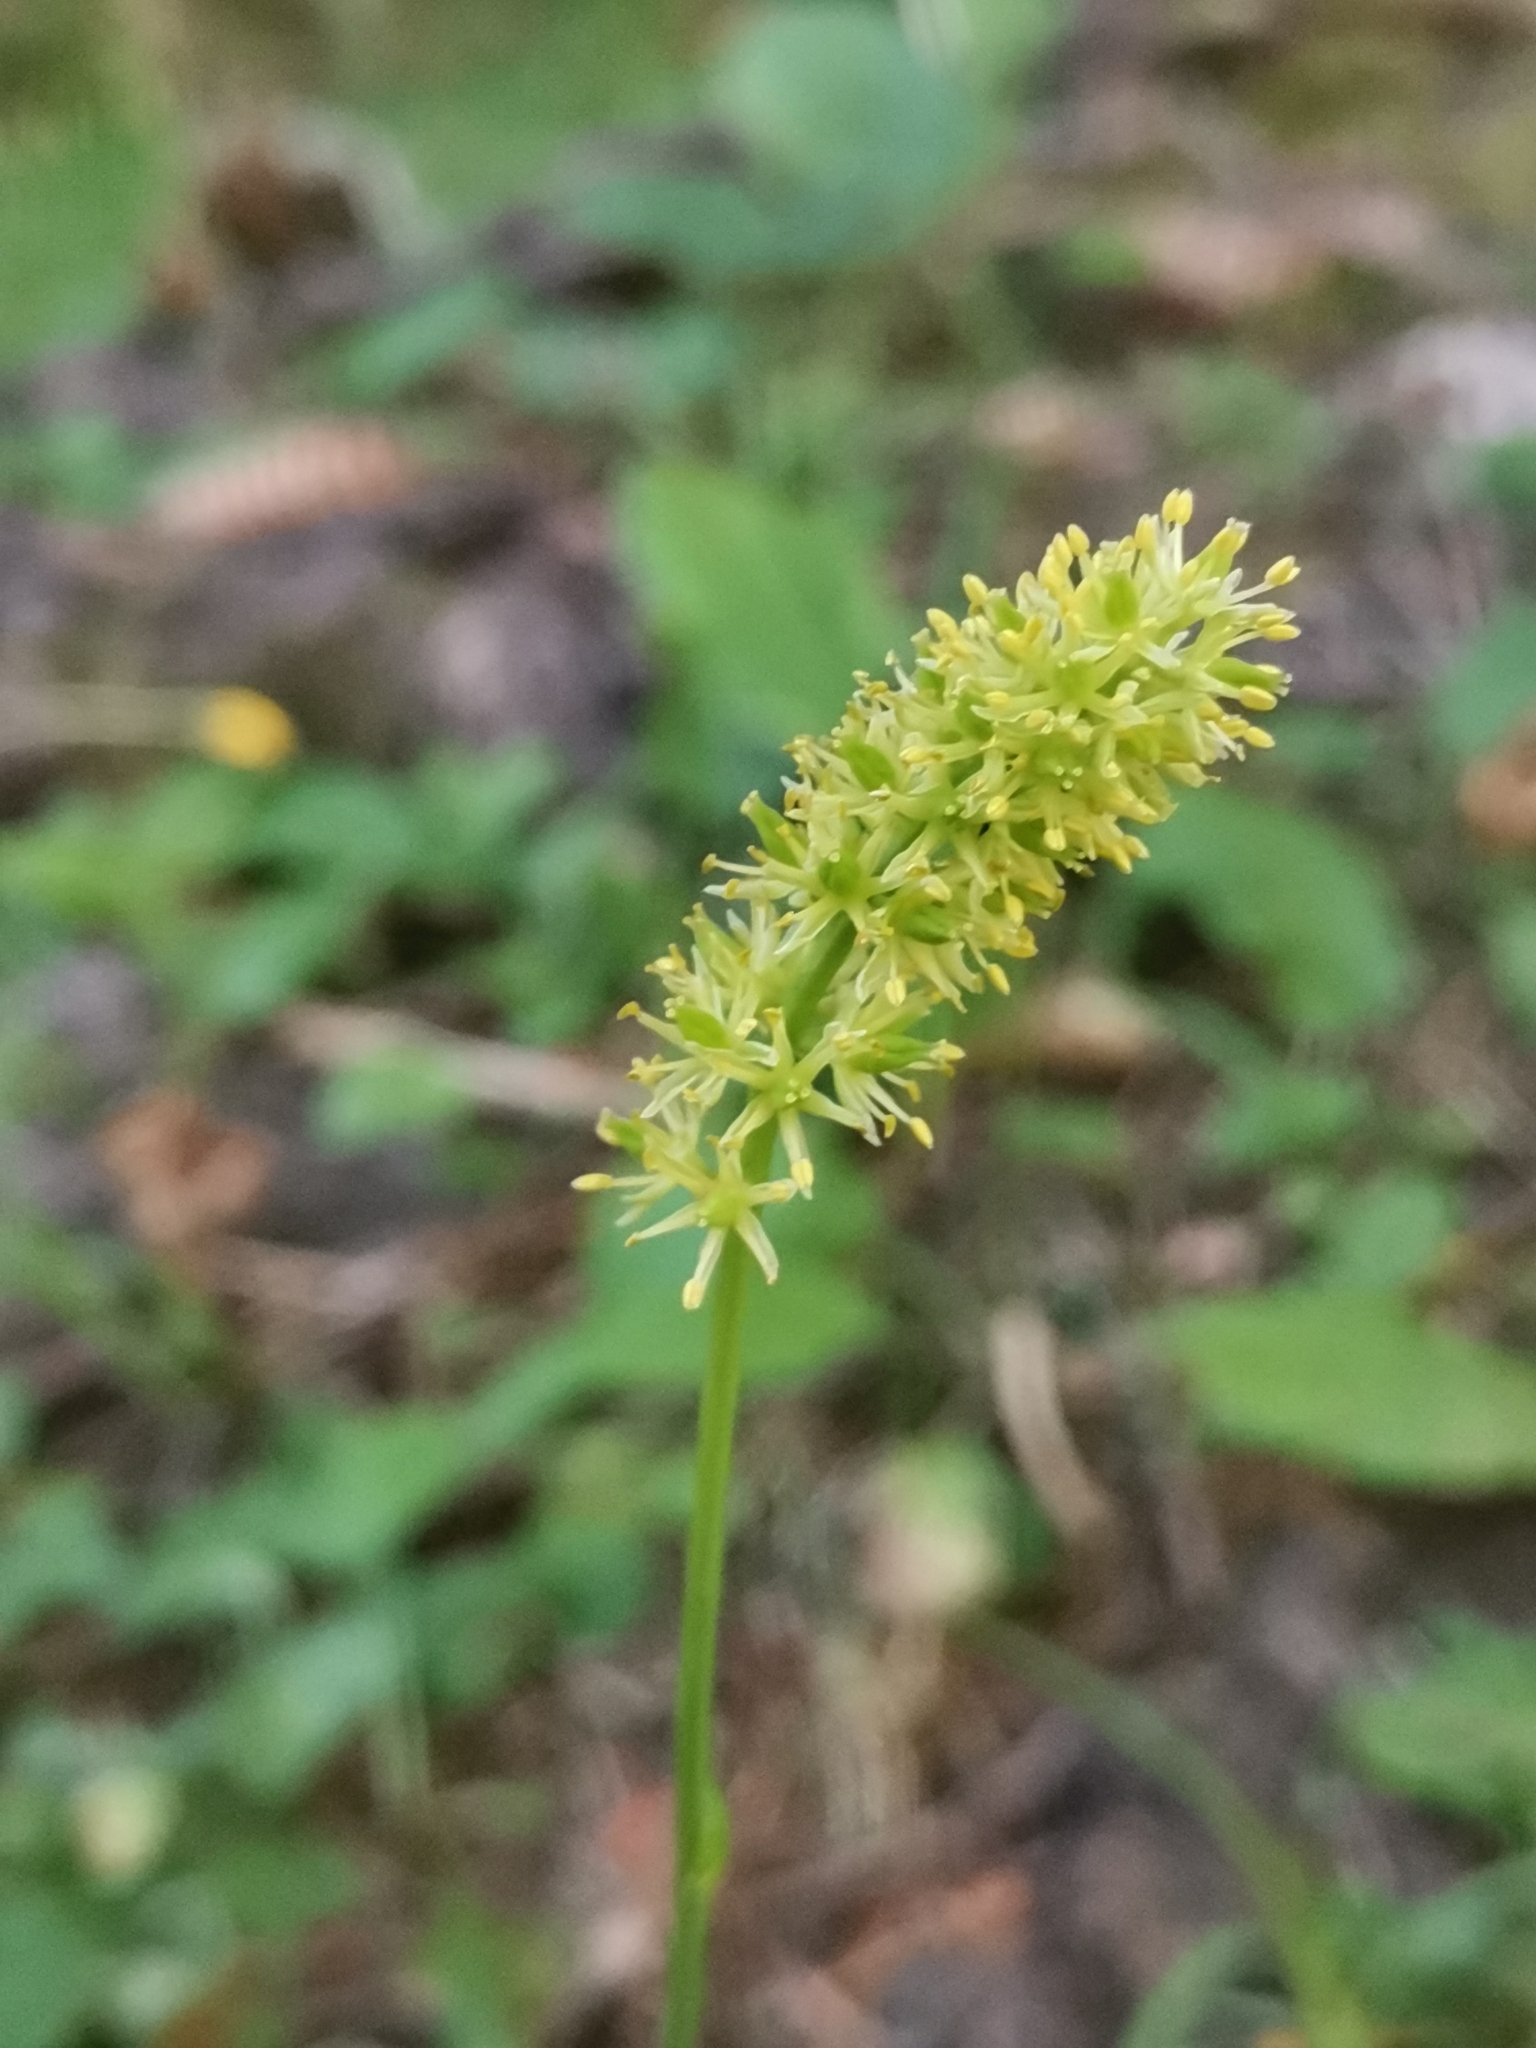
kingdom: Plantae
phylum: Tracheophyta
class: Liliopsida
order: Alismatales
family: Tofieldiaceae
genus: Tofieldia
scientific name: Tofieldia calyculata
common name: German-asphodel
